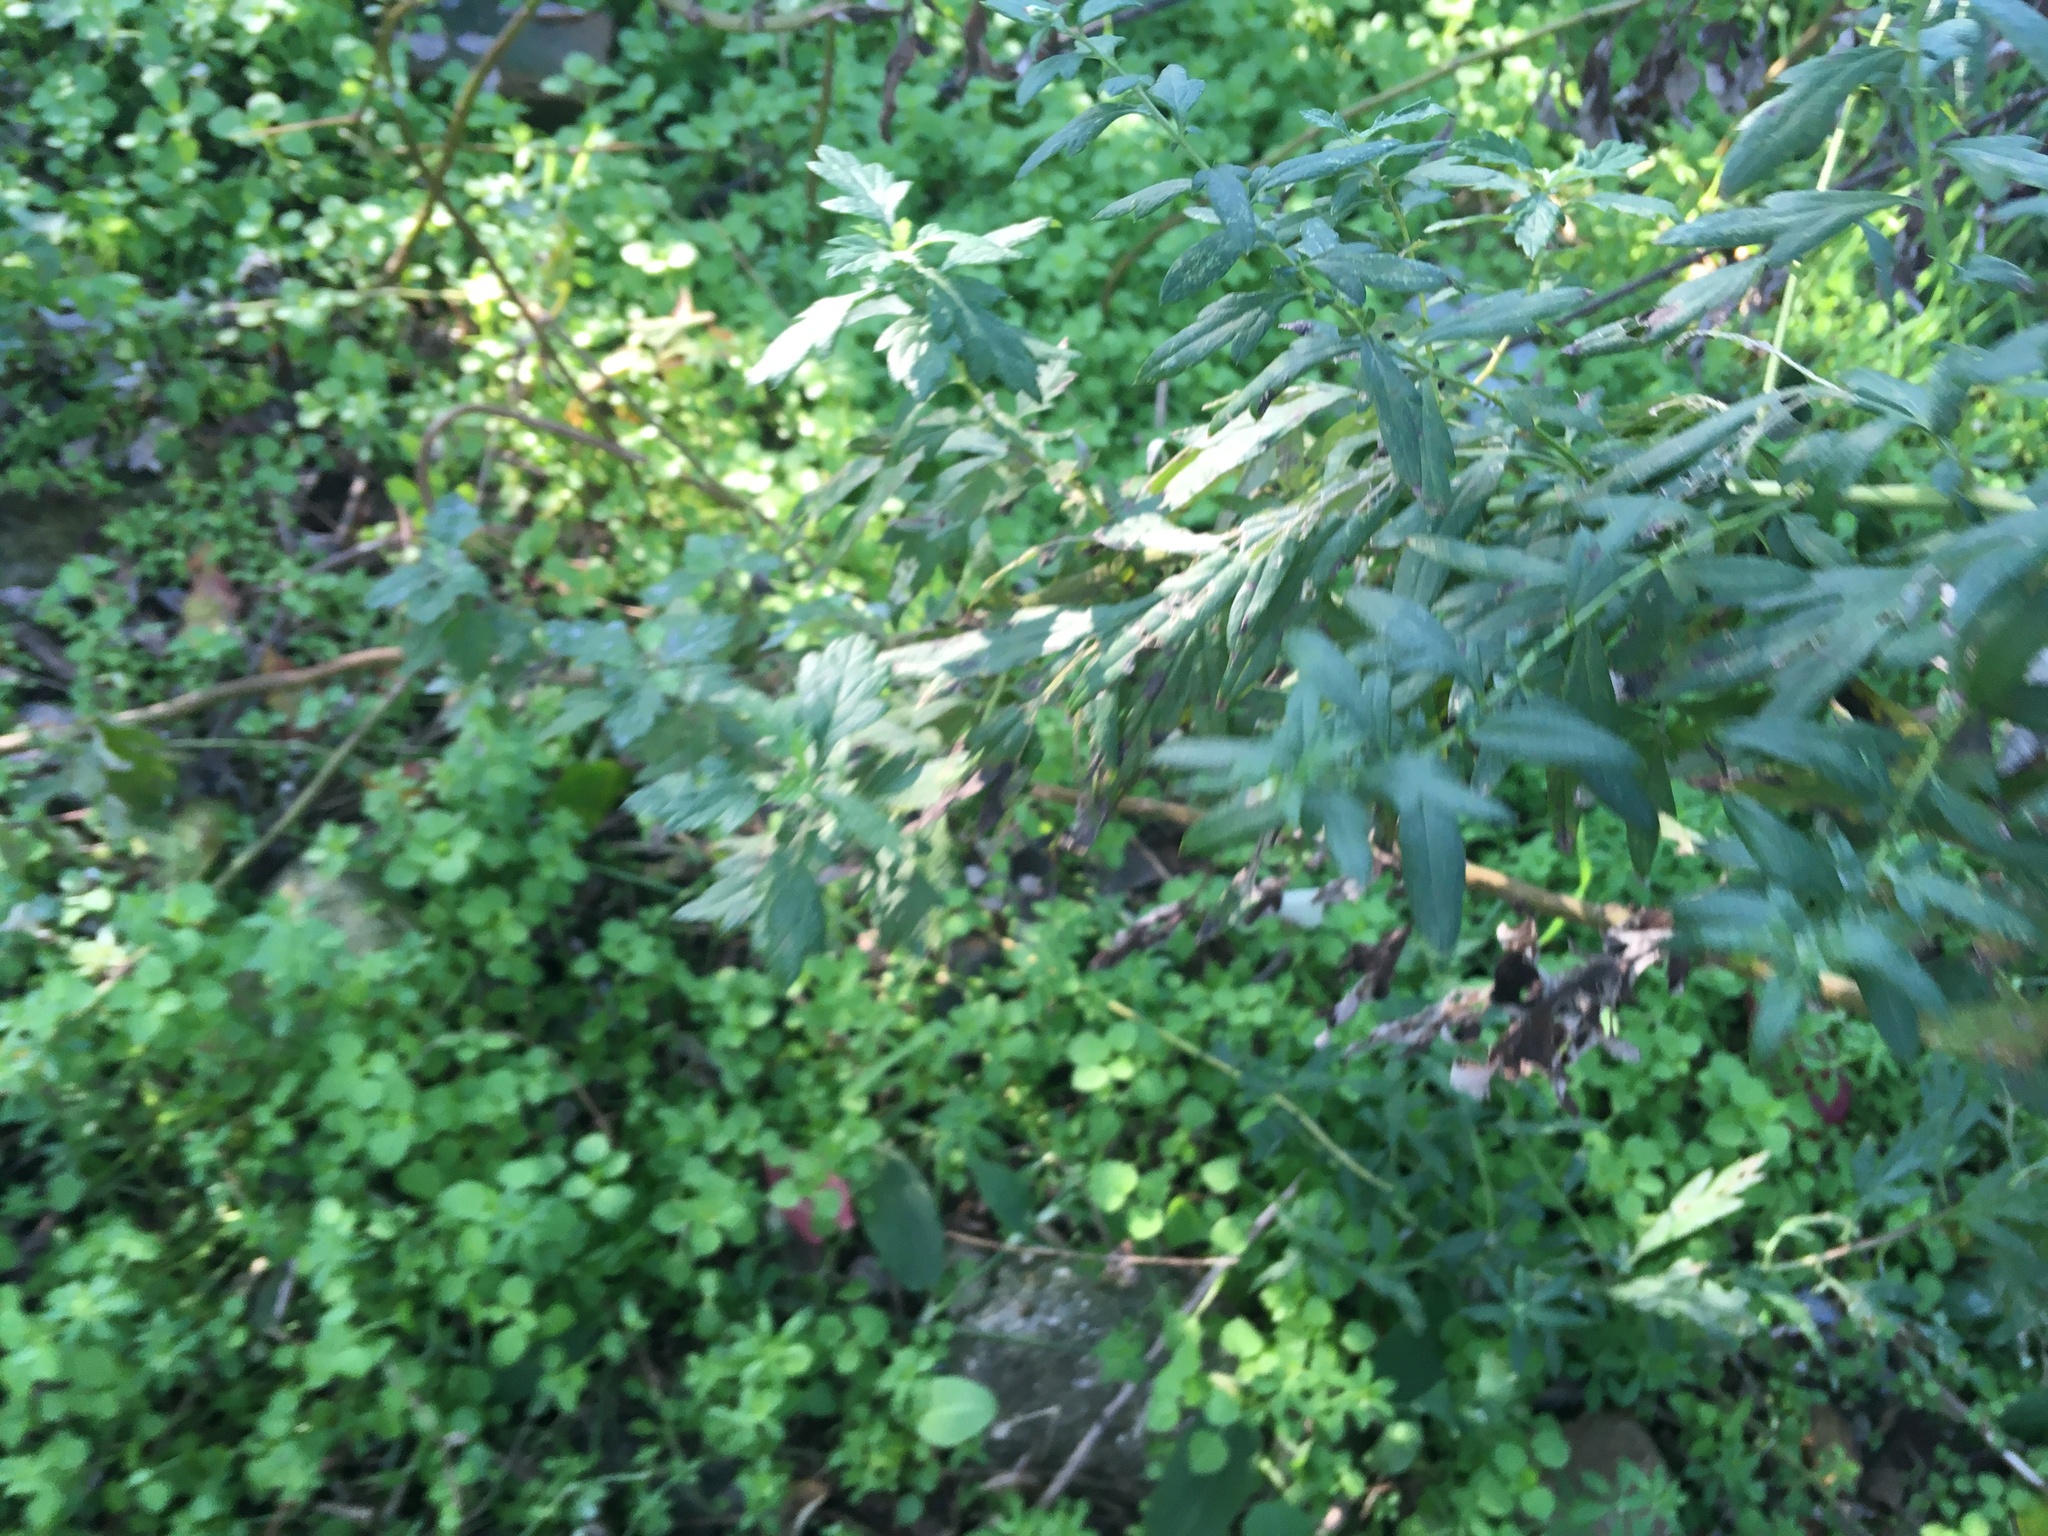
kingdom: Plantae
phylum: Tracheophyta
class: Magnoliopsida
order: Asterales
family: Asteraceae
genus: Artemisia
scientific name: Artemisia vulgaris
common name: Mugwort
